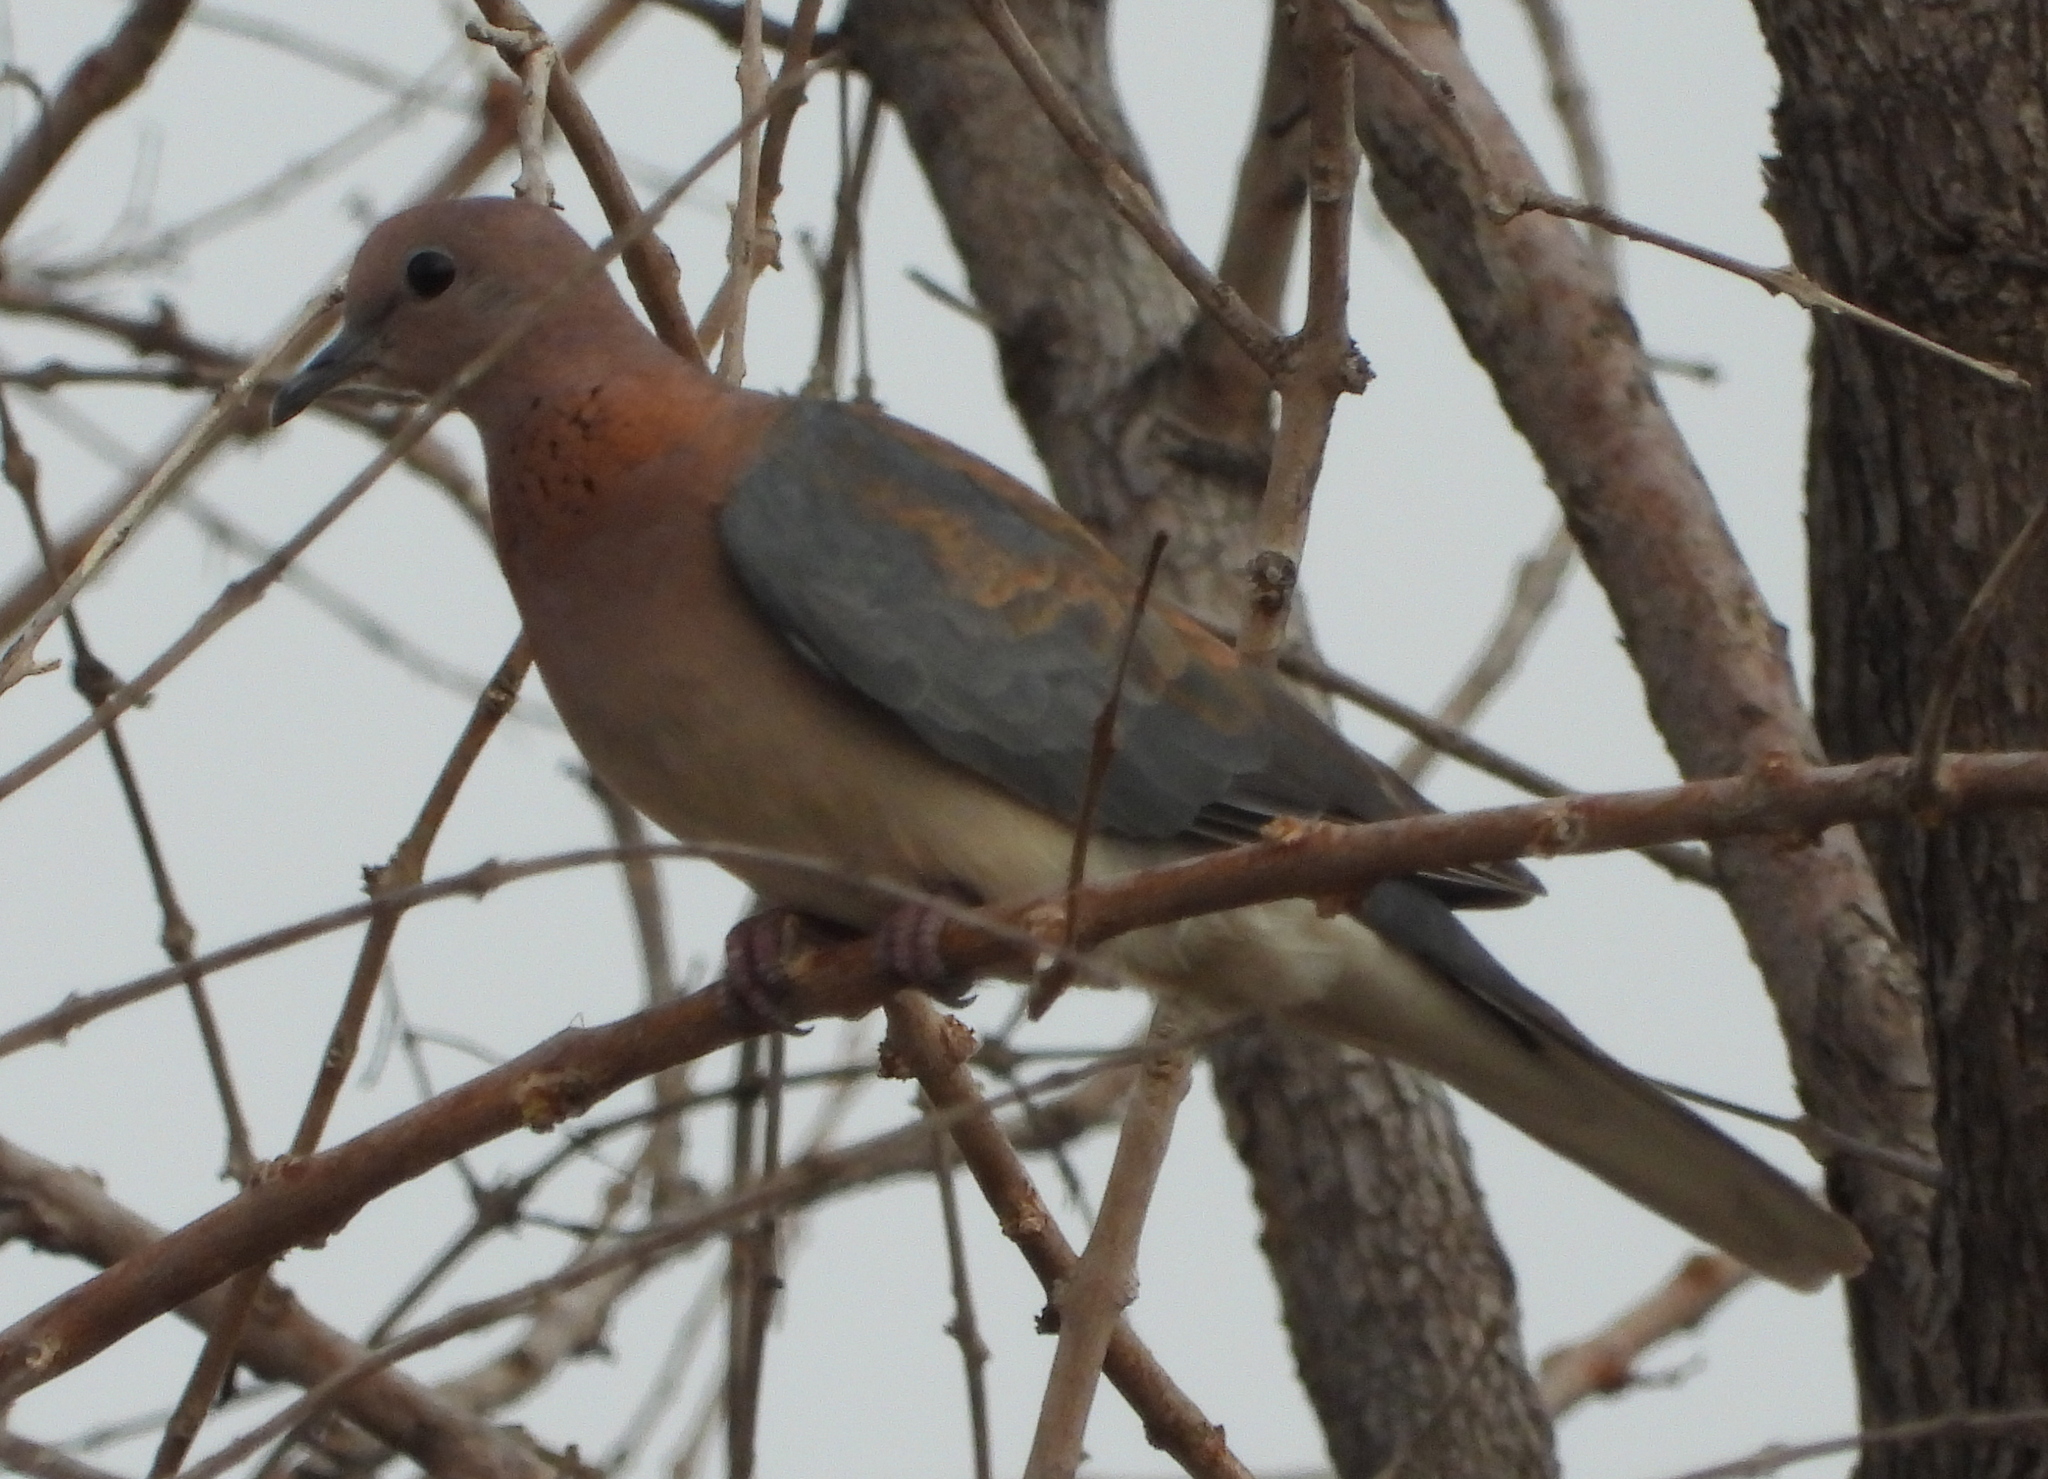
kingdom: Animalia
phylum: Chordata
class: Aves
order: Columbiformes
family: Columbidae
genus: Spilopelia
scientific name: Spilopelia senegalensis
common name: Laughing dove
